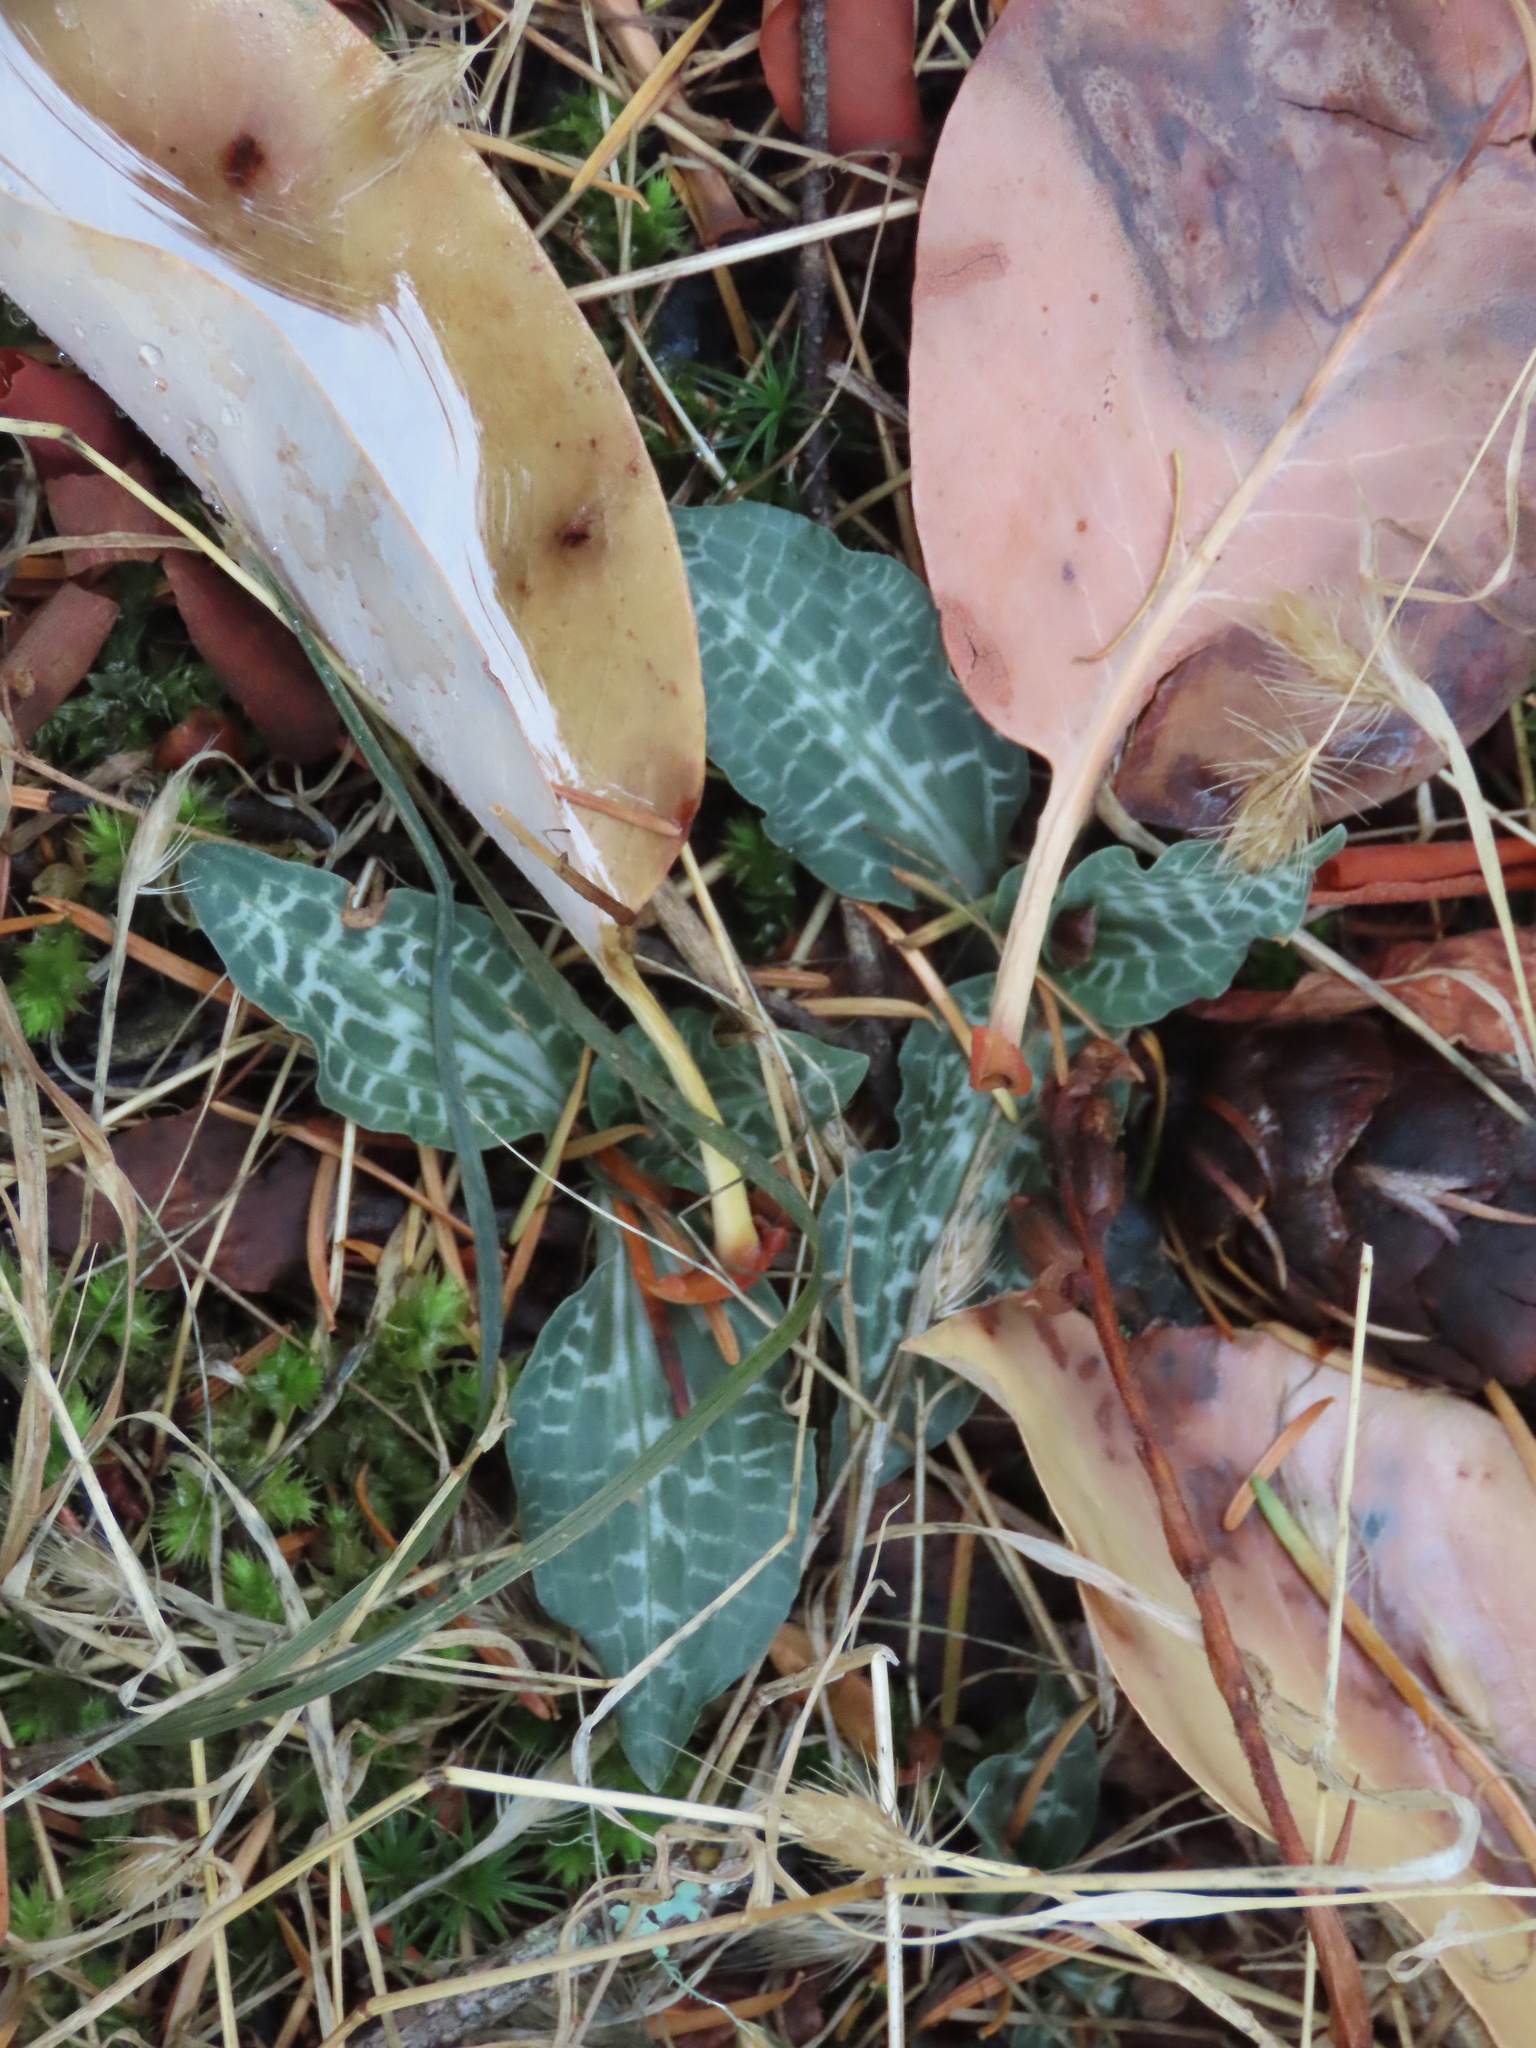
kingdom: Plantae
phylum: Tracheophyta
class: Liliopsida
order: Asparagales
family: Orchidaceae
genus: Goodyera
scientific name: Goodyera oblongifolia
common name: Giant rattlesnake-plantain
